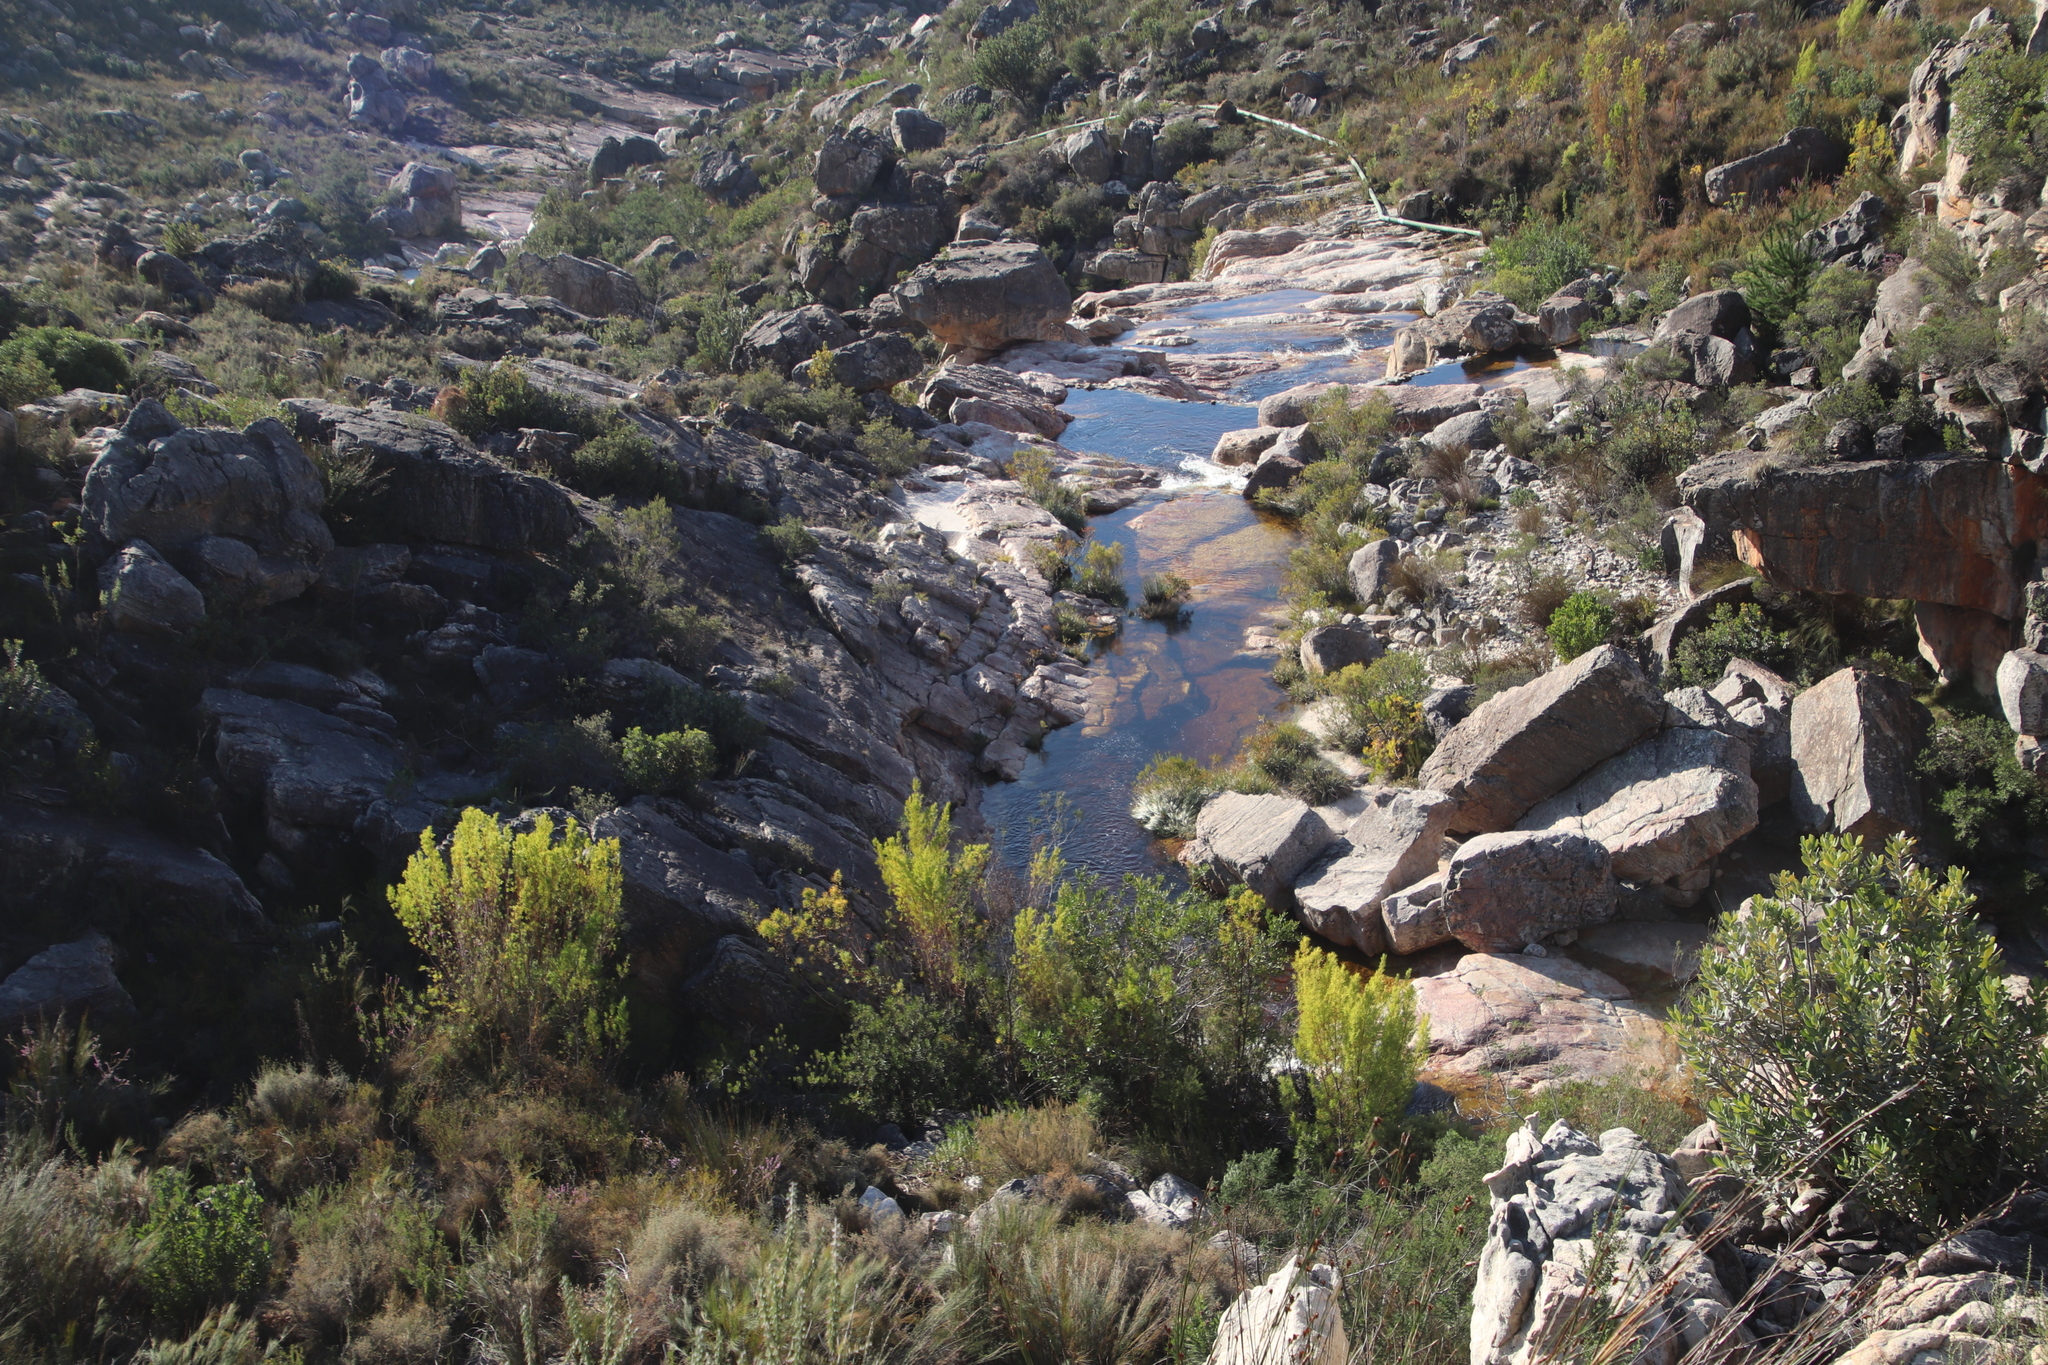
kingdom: Plantae
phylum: Tracheophyta
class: Magnoliopsida
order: Proteales
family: Proteaceae
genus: Leucadendron
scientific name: Leucadendron salicifolium
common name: Common stream conebush
